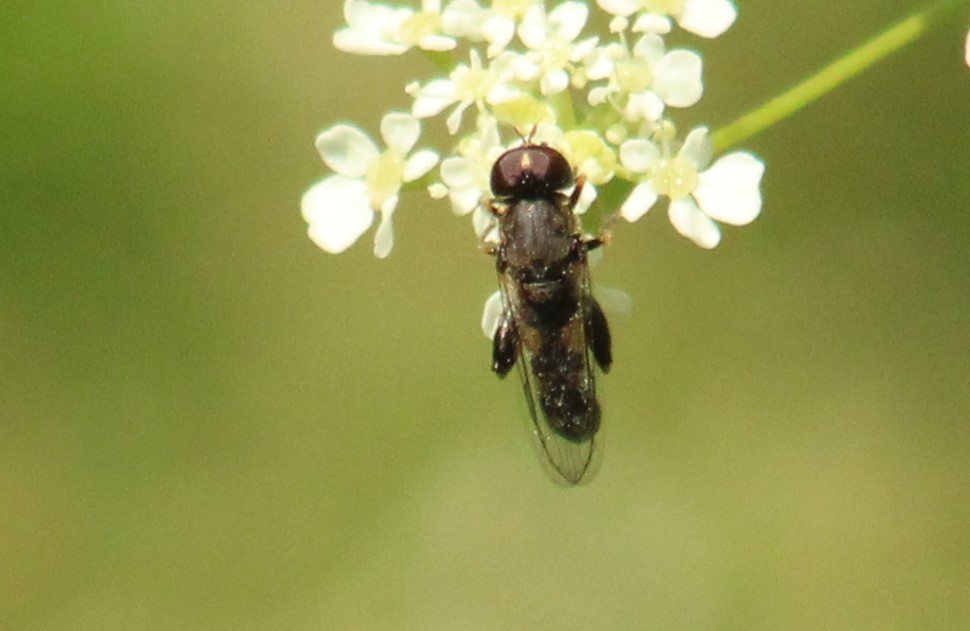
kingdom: Animalia
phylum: Arthropoda
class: Insecta
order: Diptera
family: Syrphidae
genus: Syritta
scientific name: Syritta pipiens
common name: Hover fly
